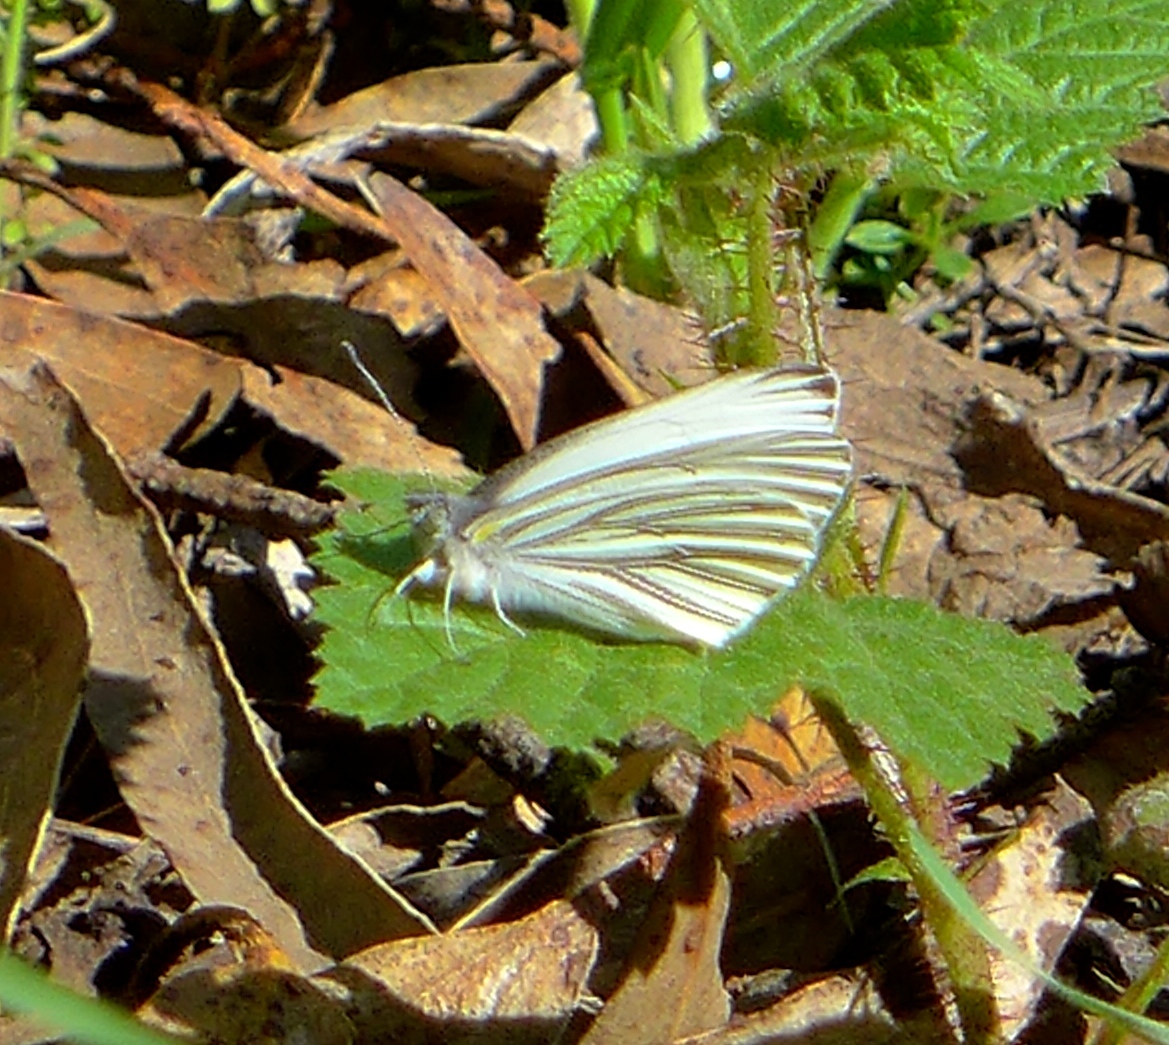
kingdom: Animalia
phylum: Arthropoda
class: Insecta
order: Lepidoptera
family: Pieridae
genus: Pieris
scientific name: Pieris marginalis
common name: Margined white
